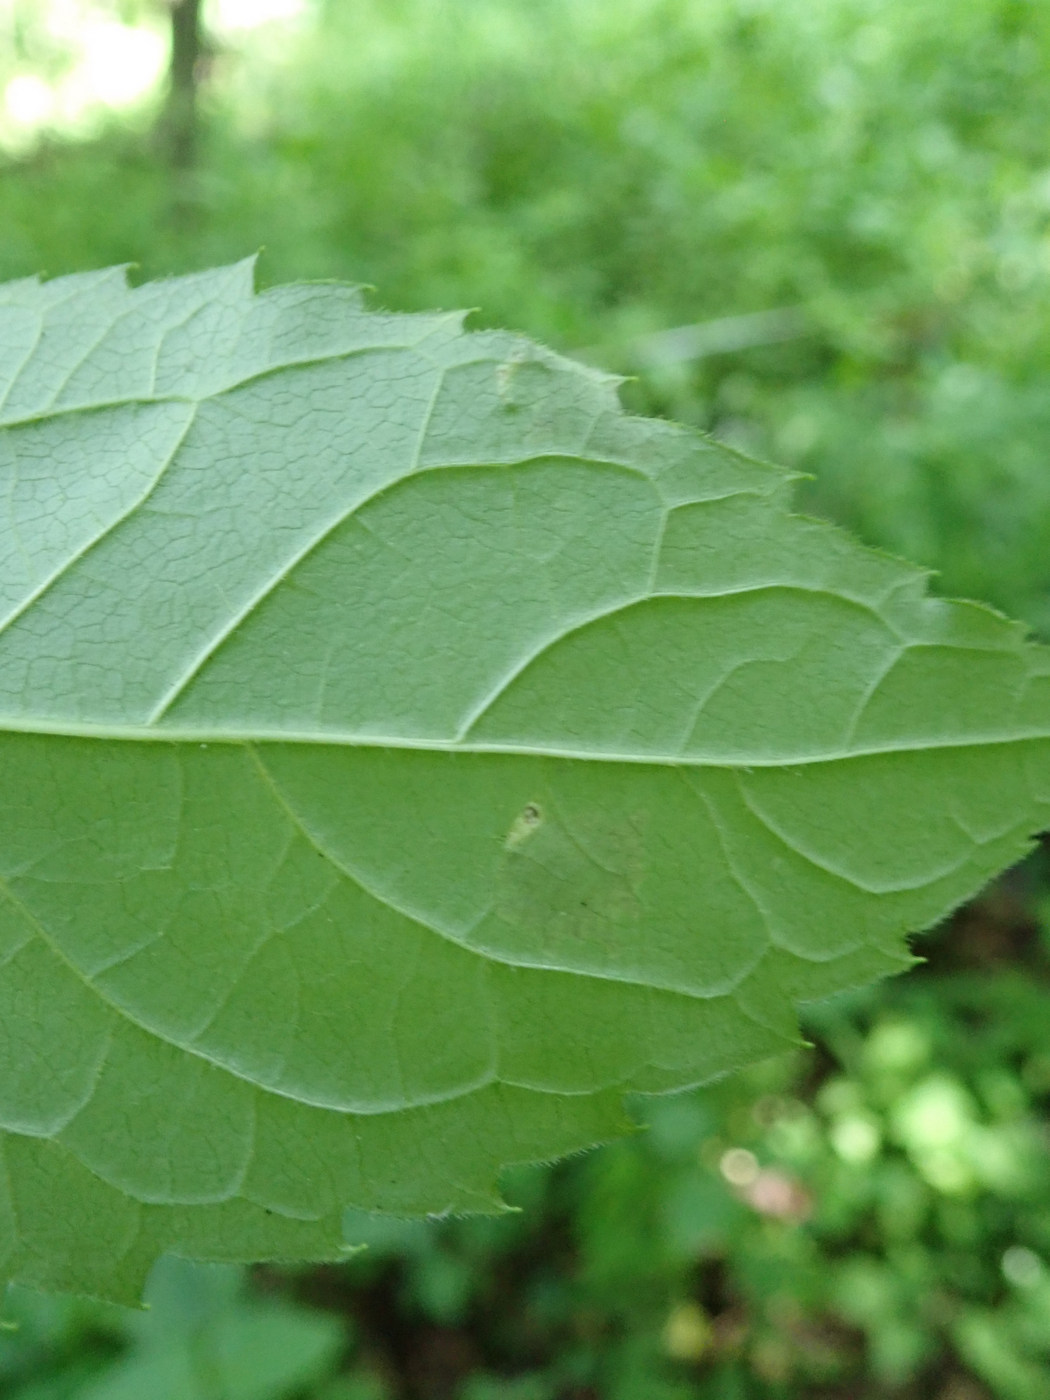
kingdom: Animalia
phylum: Arthropoda
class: Insecta
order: Lepidoptera
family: Tischeriidae
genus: Astrotischeria
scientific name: Astrotischeria heliopsisella
